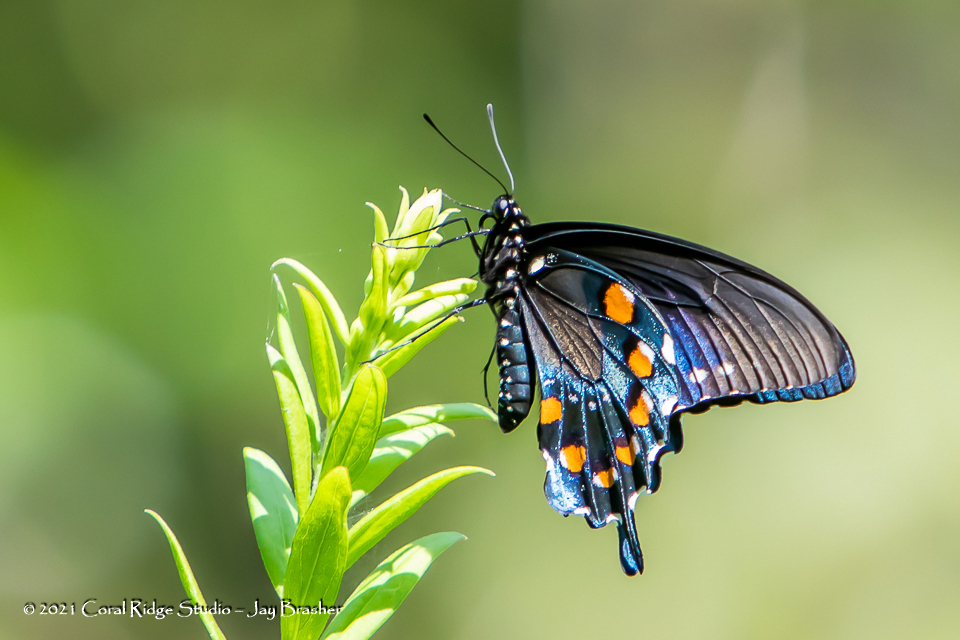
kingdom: Animalia
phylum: Arthropoda
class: Insecta
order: Lepidoptera
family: Papilionidae
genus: Battus
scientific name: Battus philenor
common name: Pipevine swallowtail
